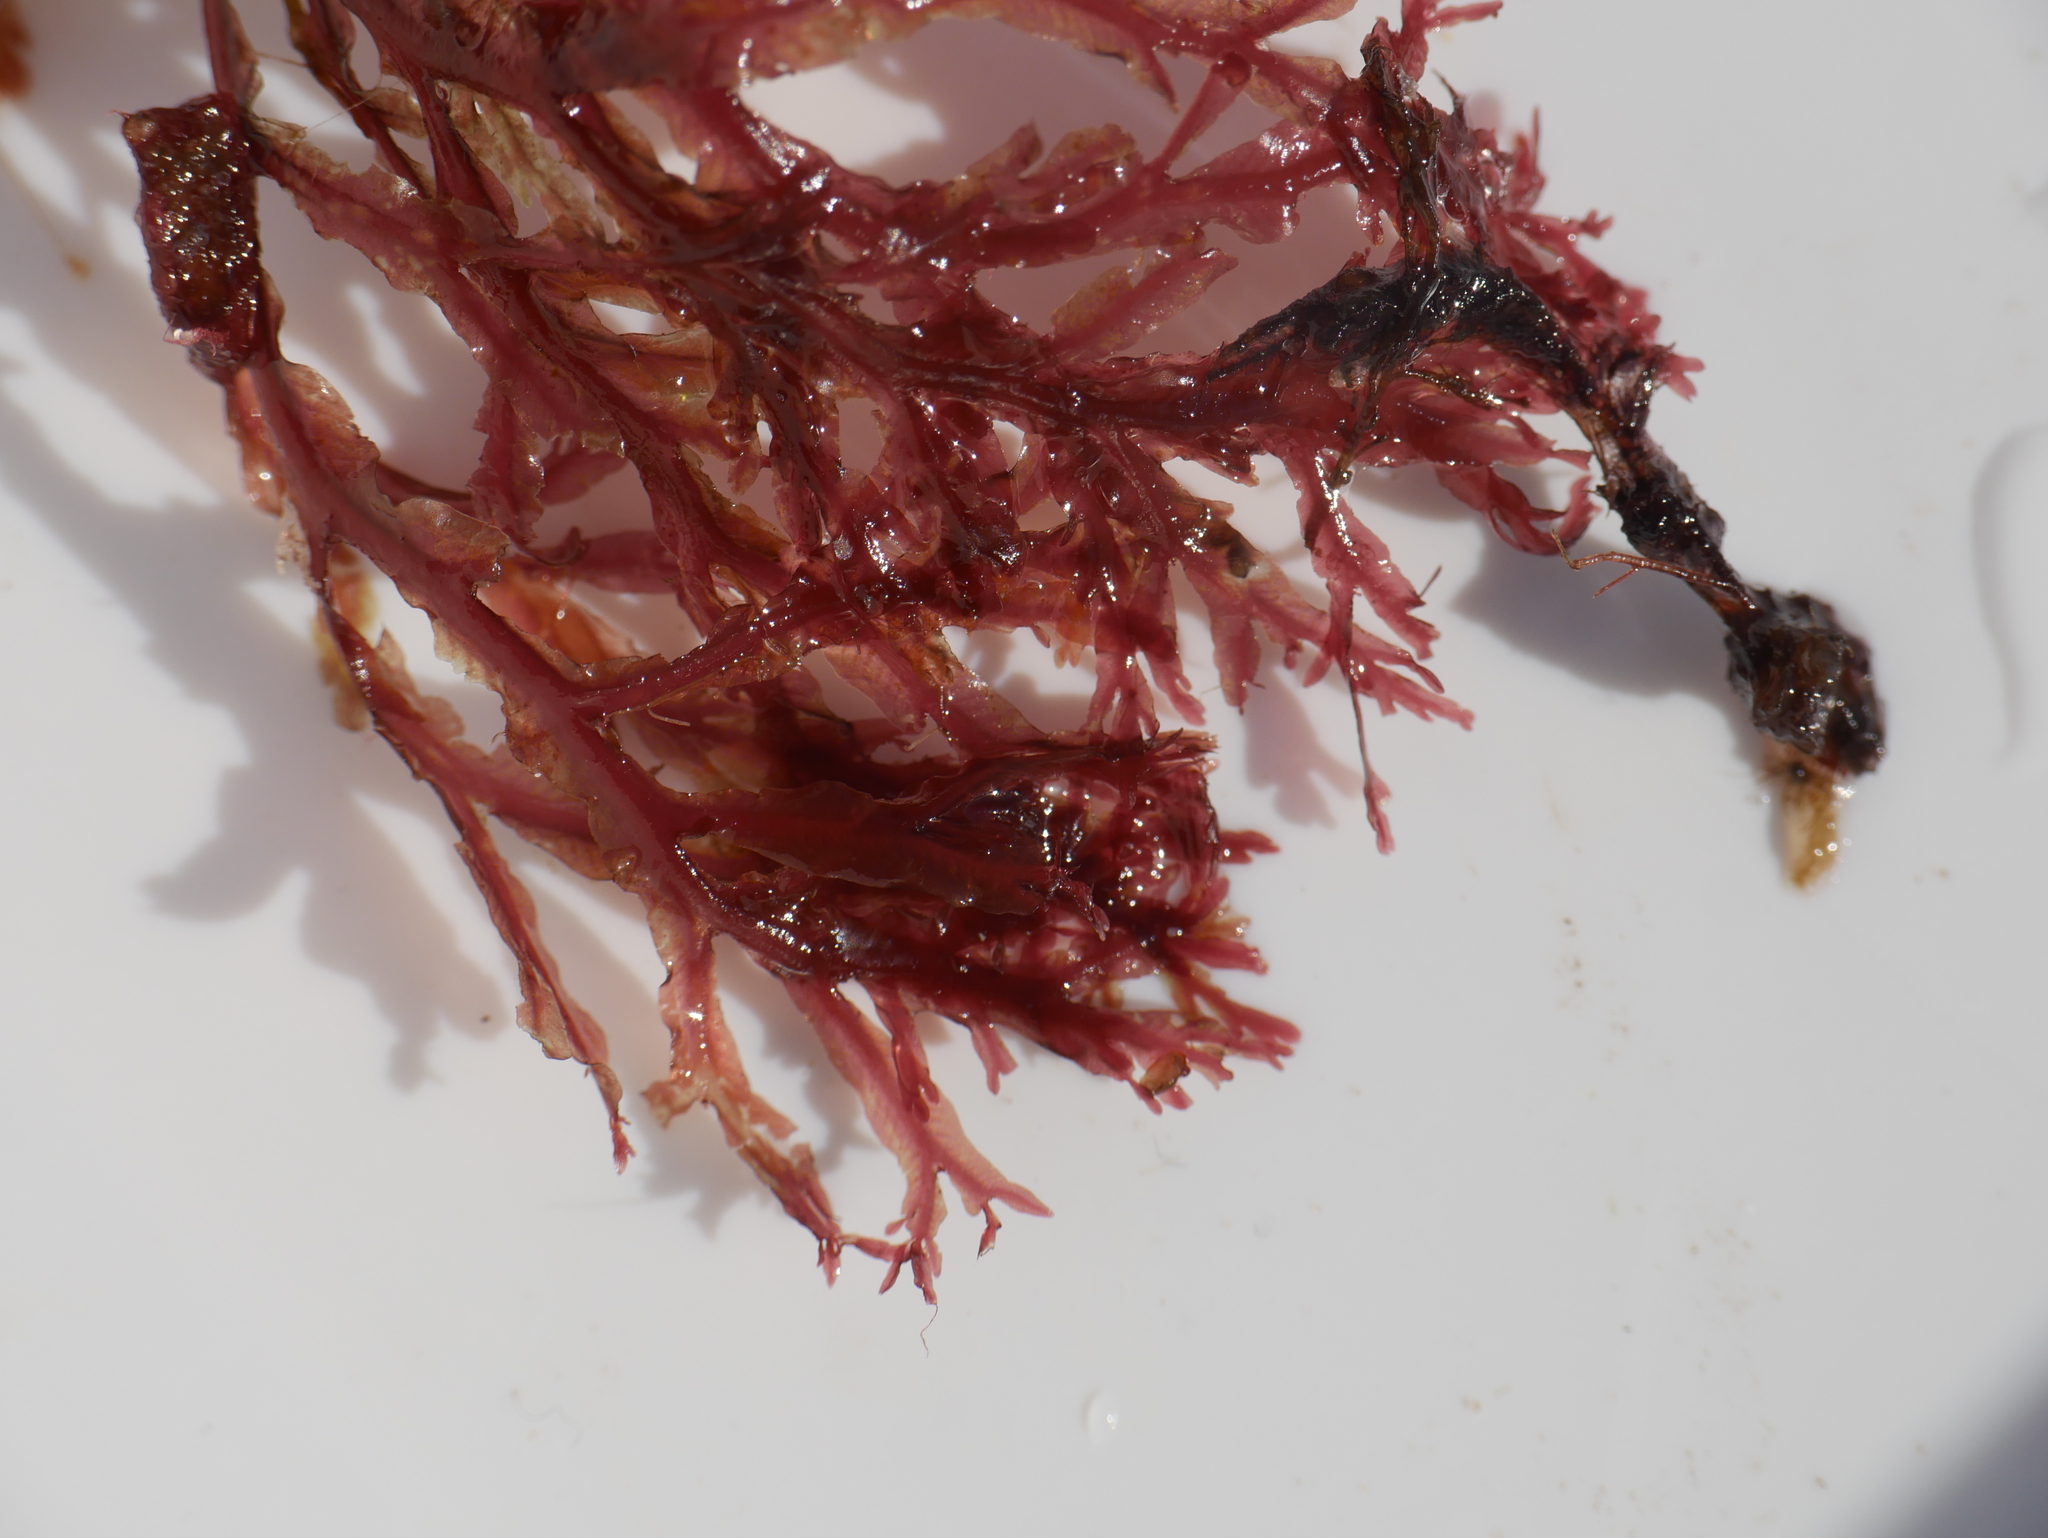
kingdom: Plantae
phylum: Rhodophyta
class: Florideophyceae
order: Ceramiales
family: Delesseriaceae
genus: Membranoptera
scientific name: Membranoptera alata
